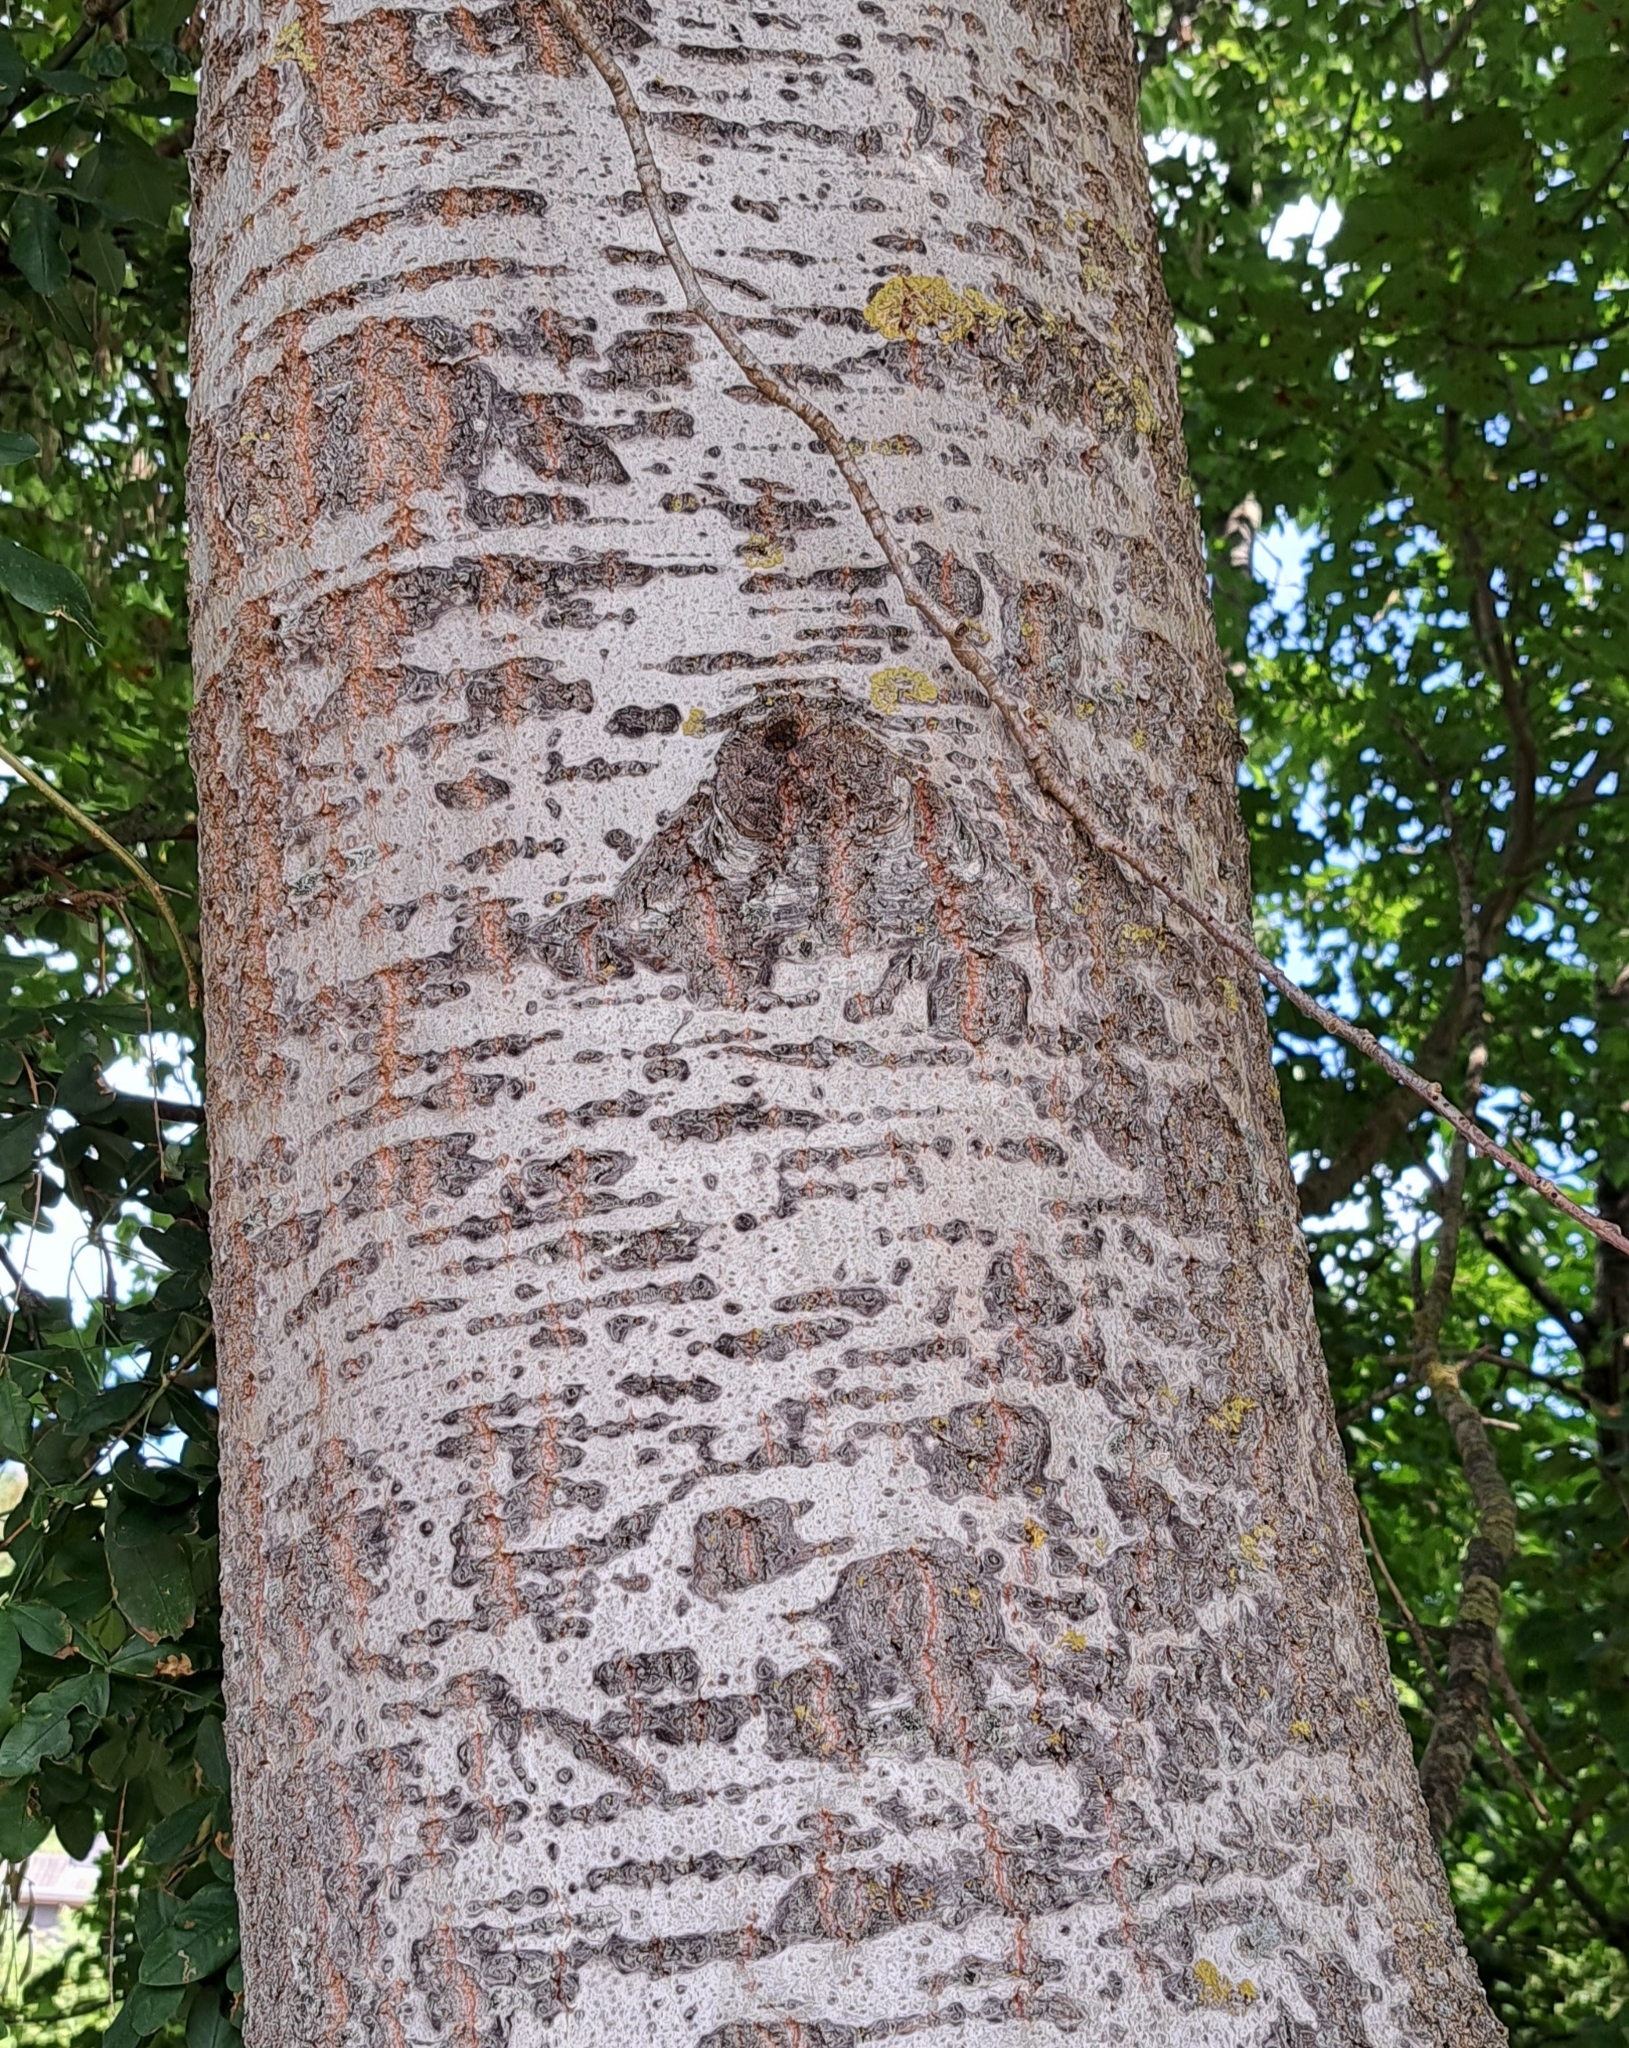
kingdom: Plantae
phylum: Tracheophyta
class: Magnoliopsida
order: Malpighiales
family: Salicaceae
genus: Populus
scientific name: Populus tremula
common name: European aspen
